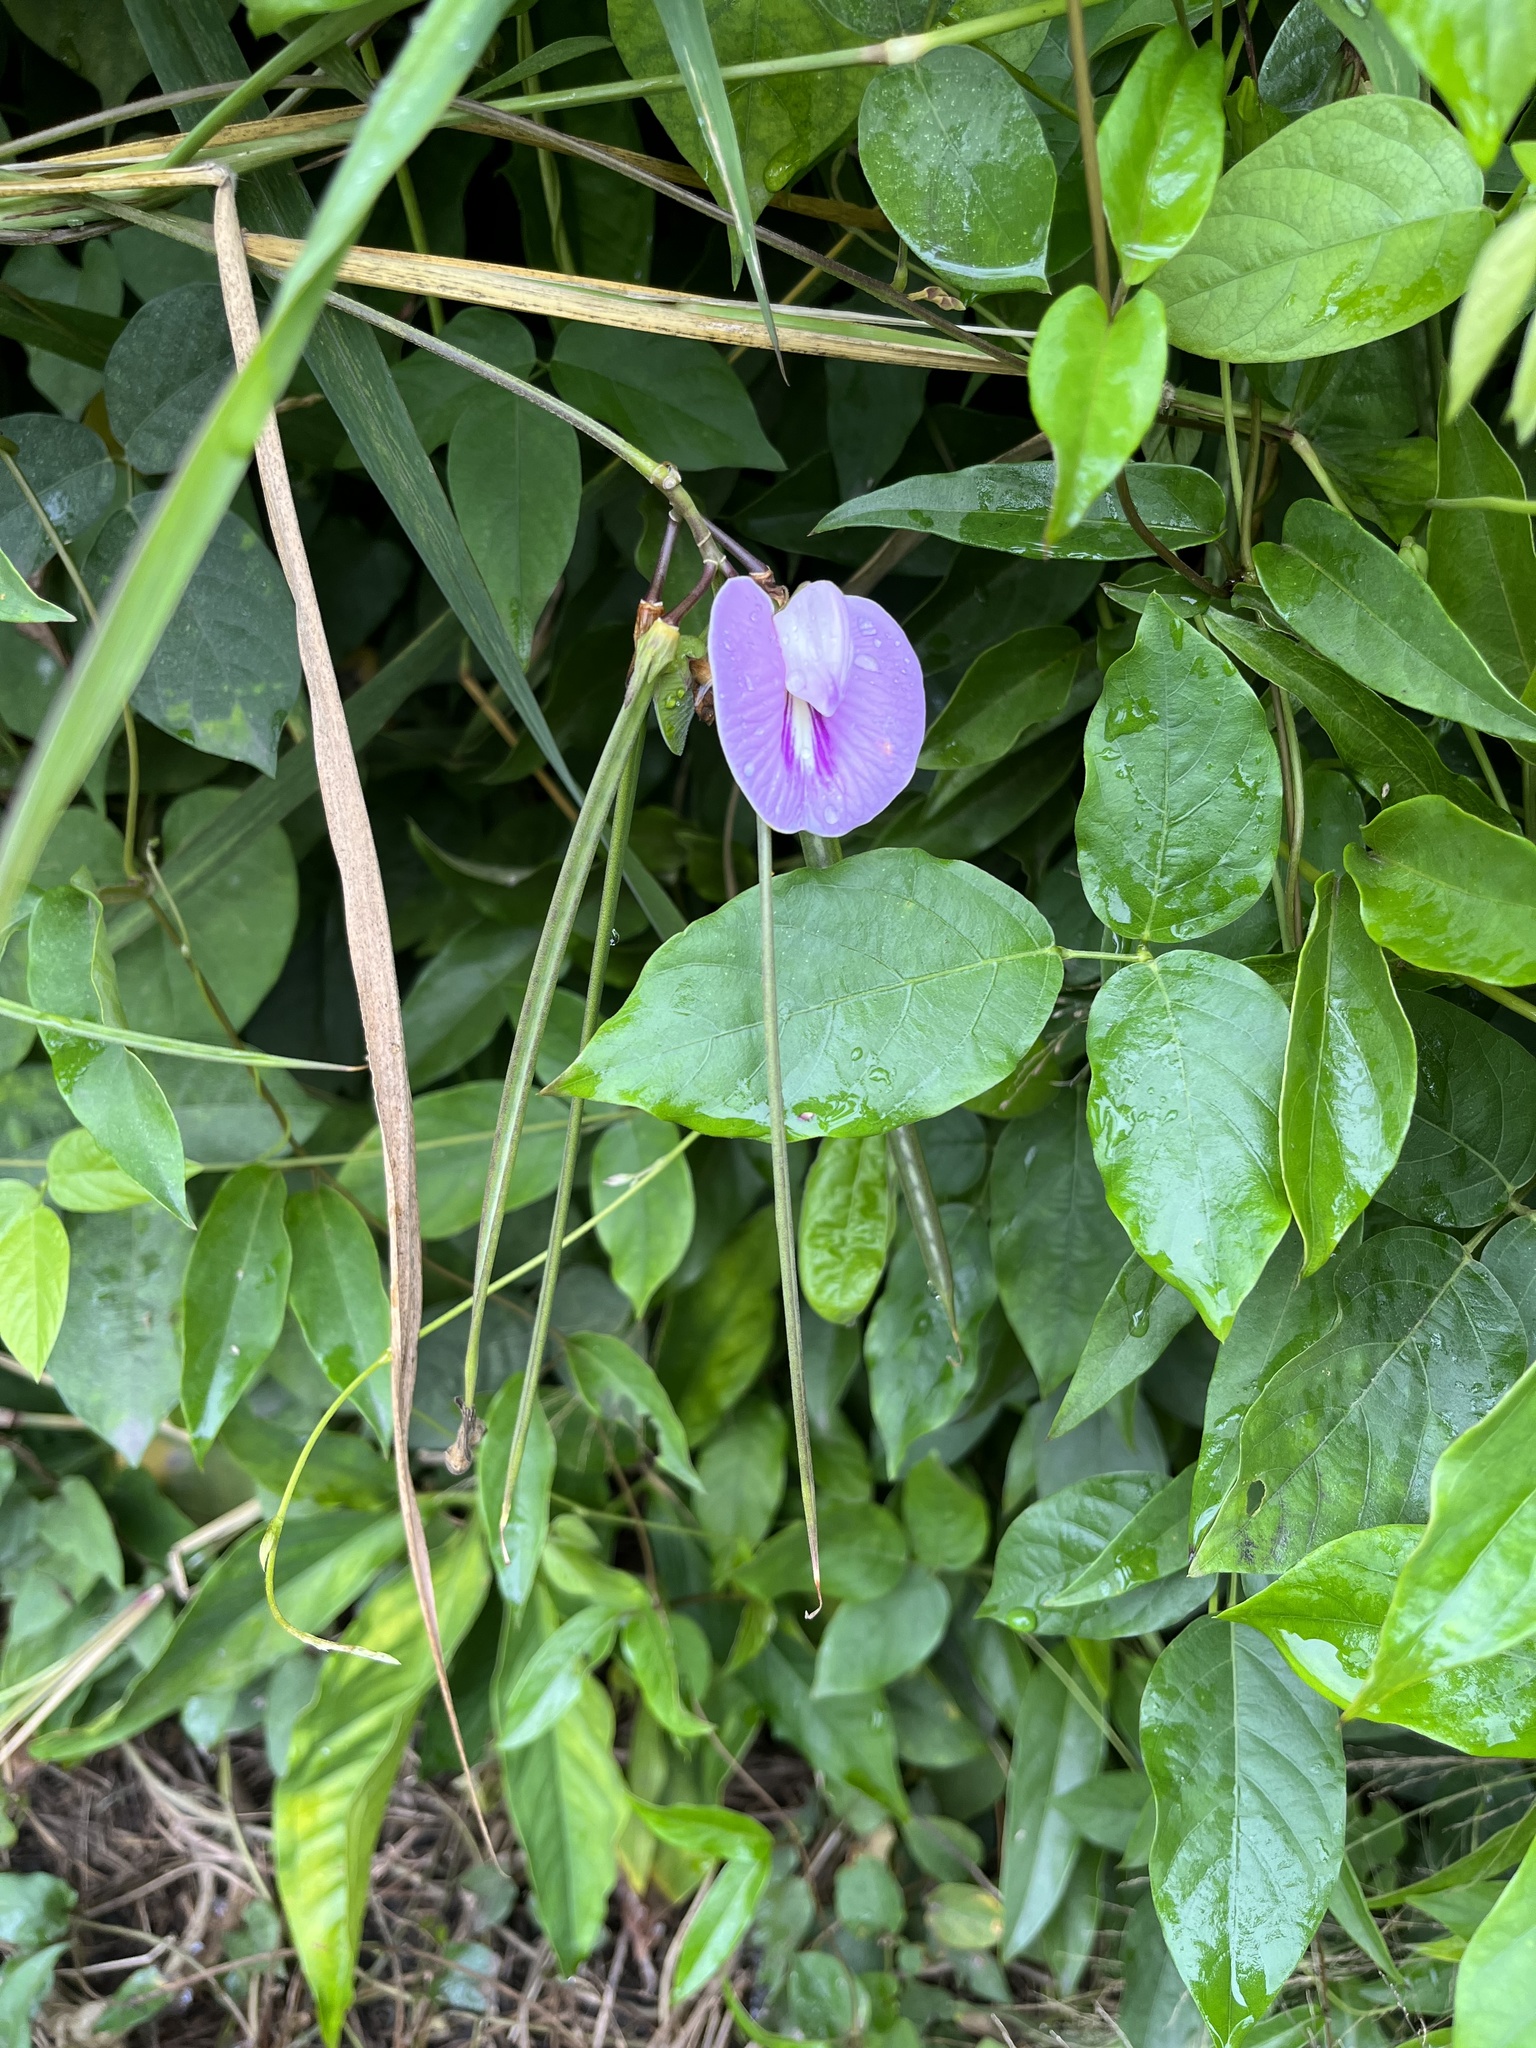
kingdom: Plantae
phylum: Tracheophyta
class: Magnoliopsida
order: Fabales
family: Fabaceae
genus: Centrosema
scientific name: Centrosema pubescens
